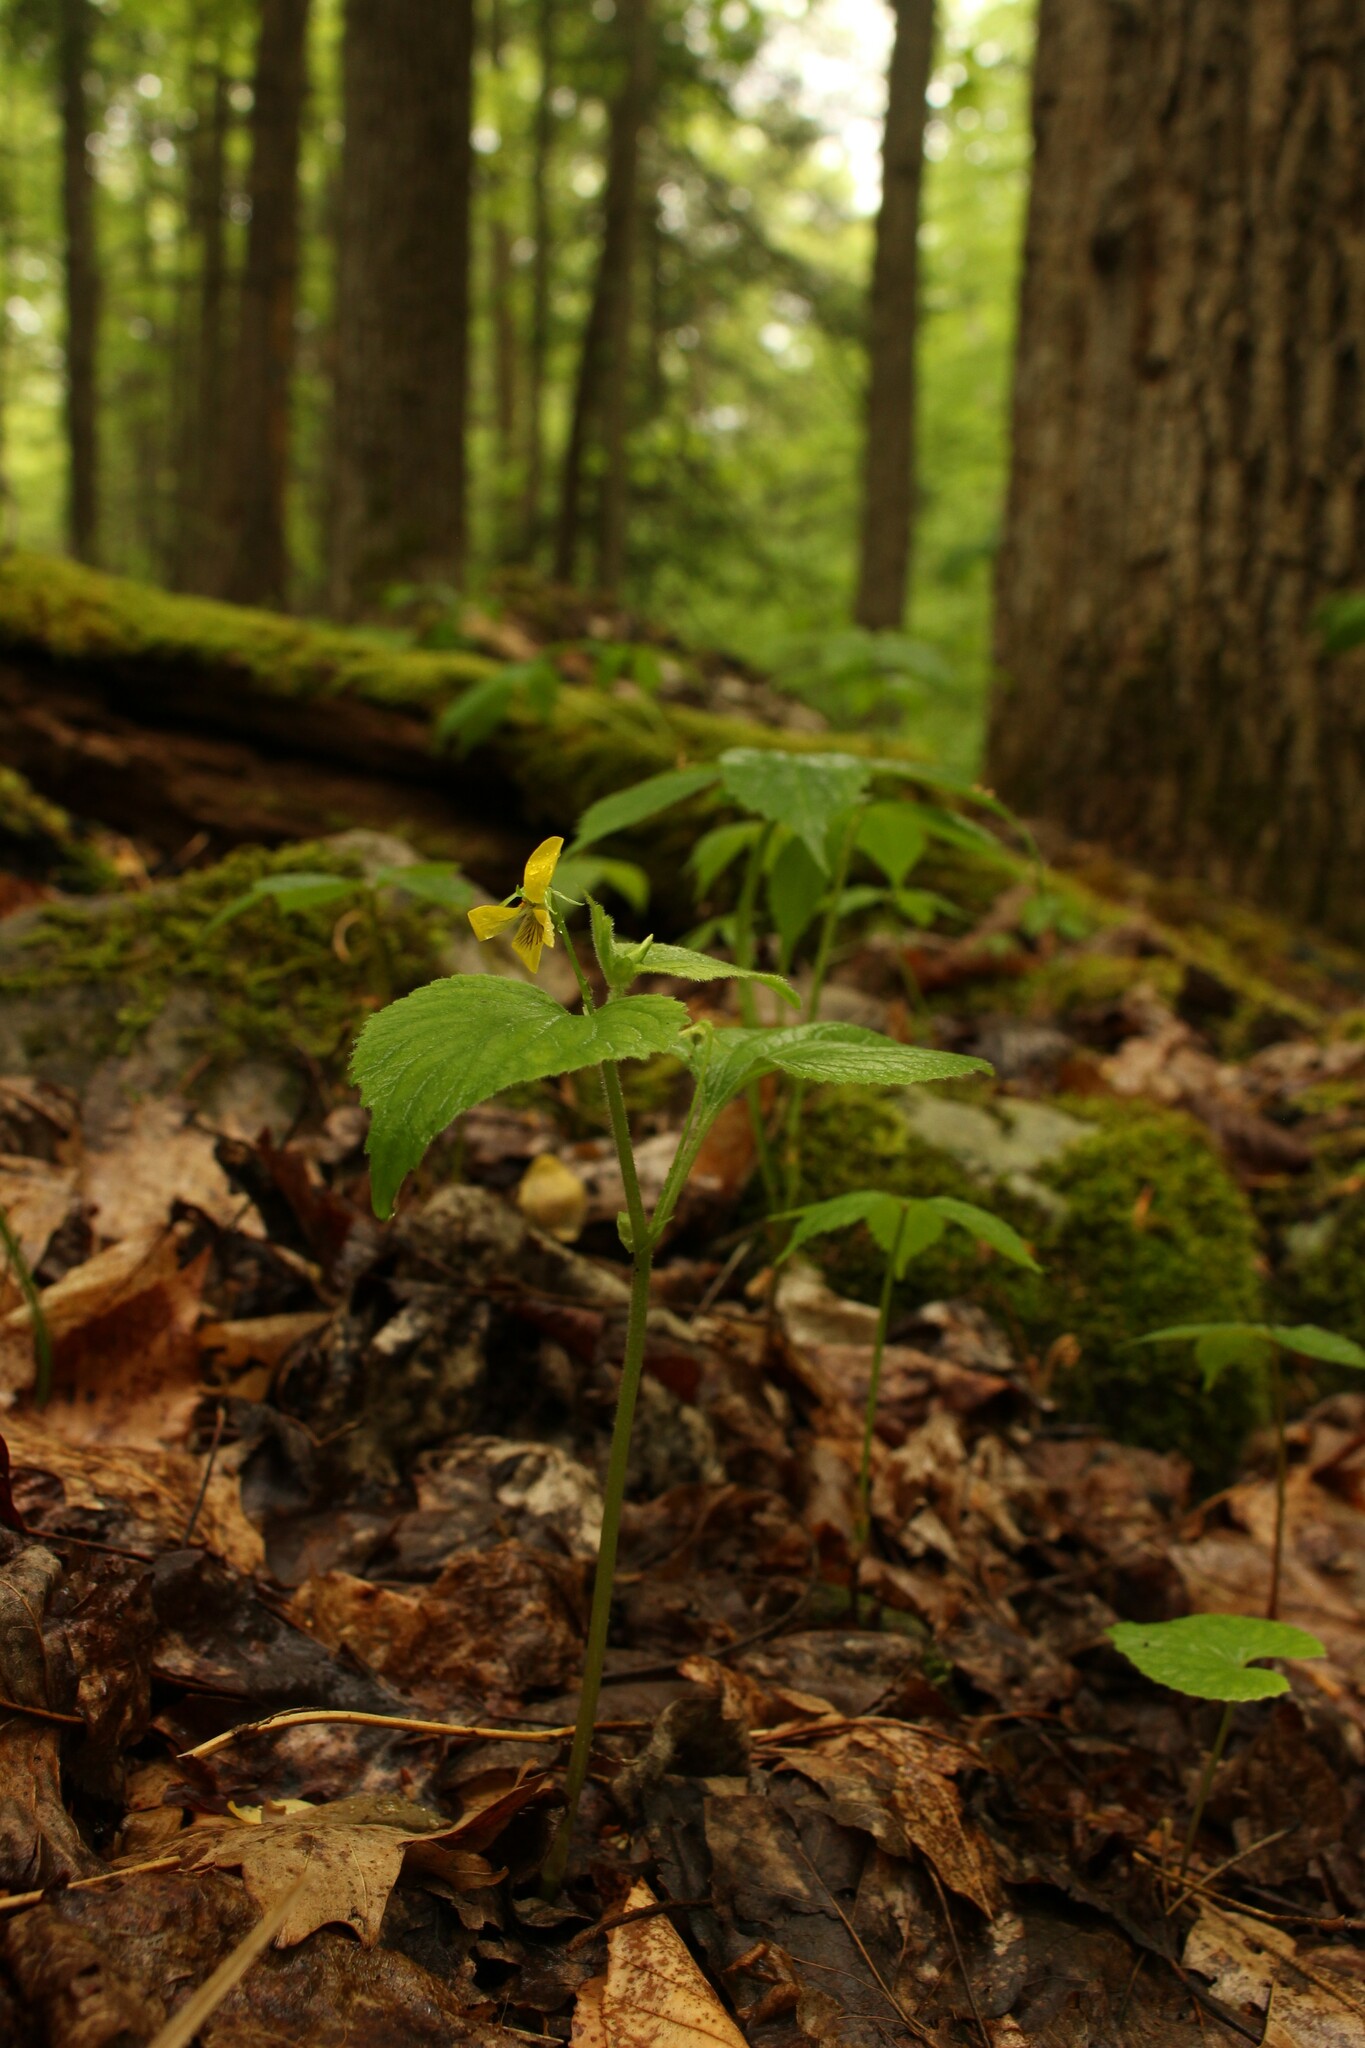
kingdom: Plantae
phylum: Tracheophyta
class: Magnoliopsida
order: Malpighiales
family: Violaceae
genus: Viola
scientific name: Viola pubescens
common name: Yellow forest violet
